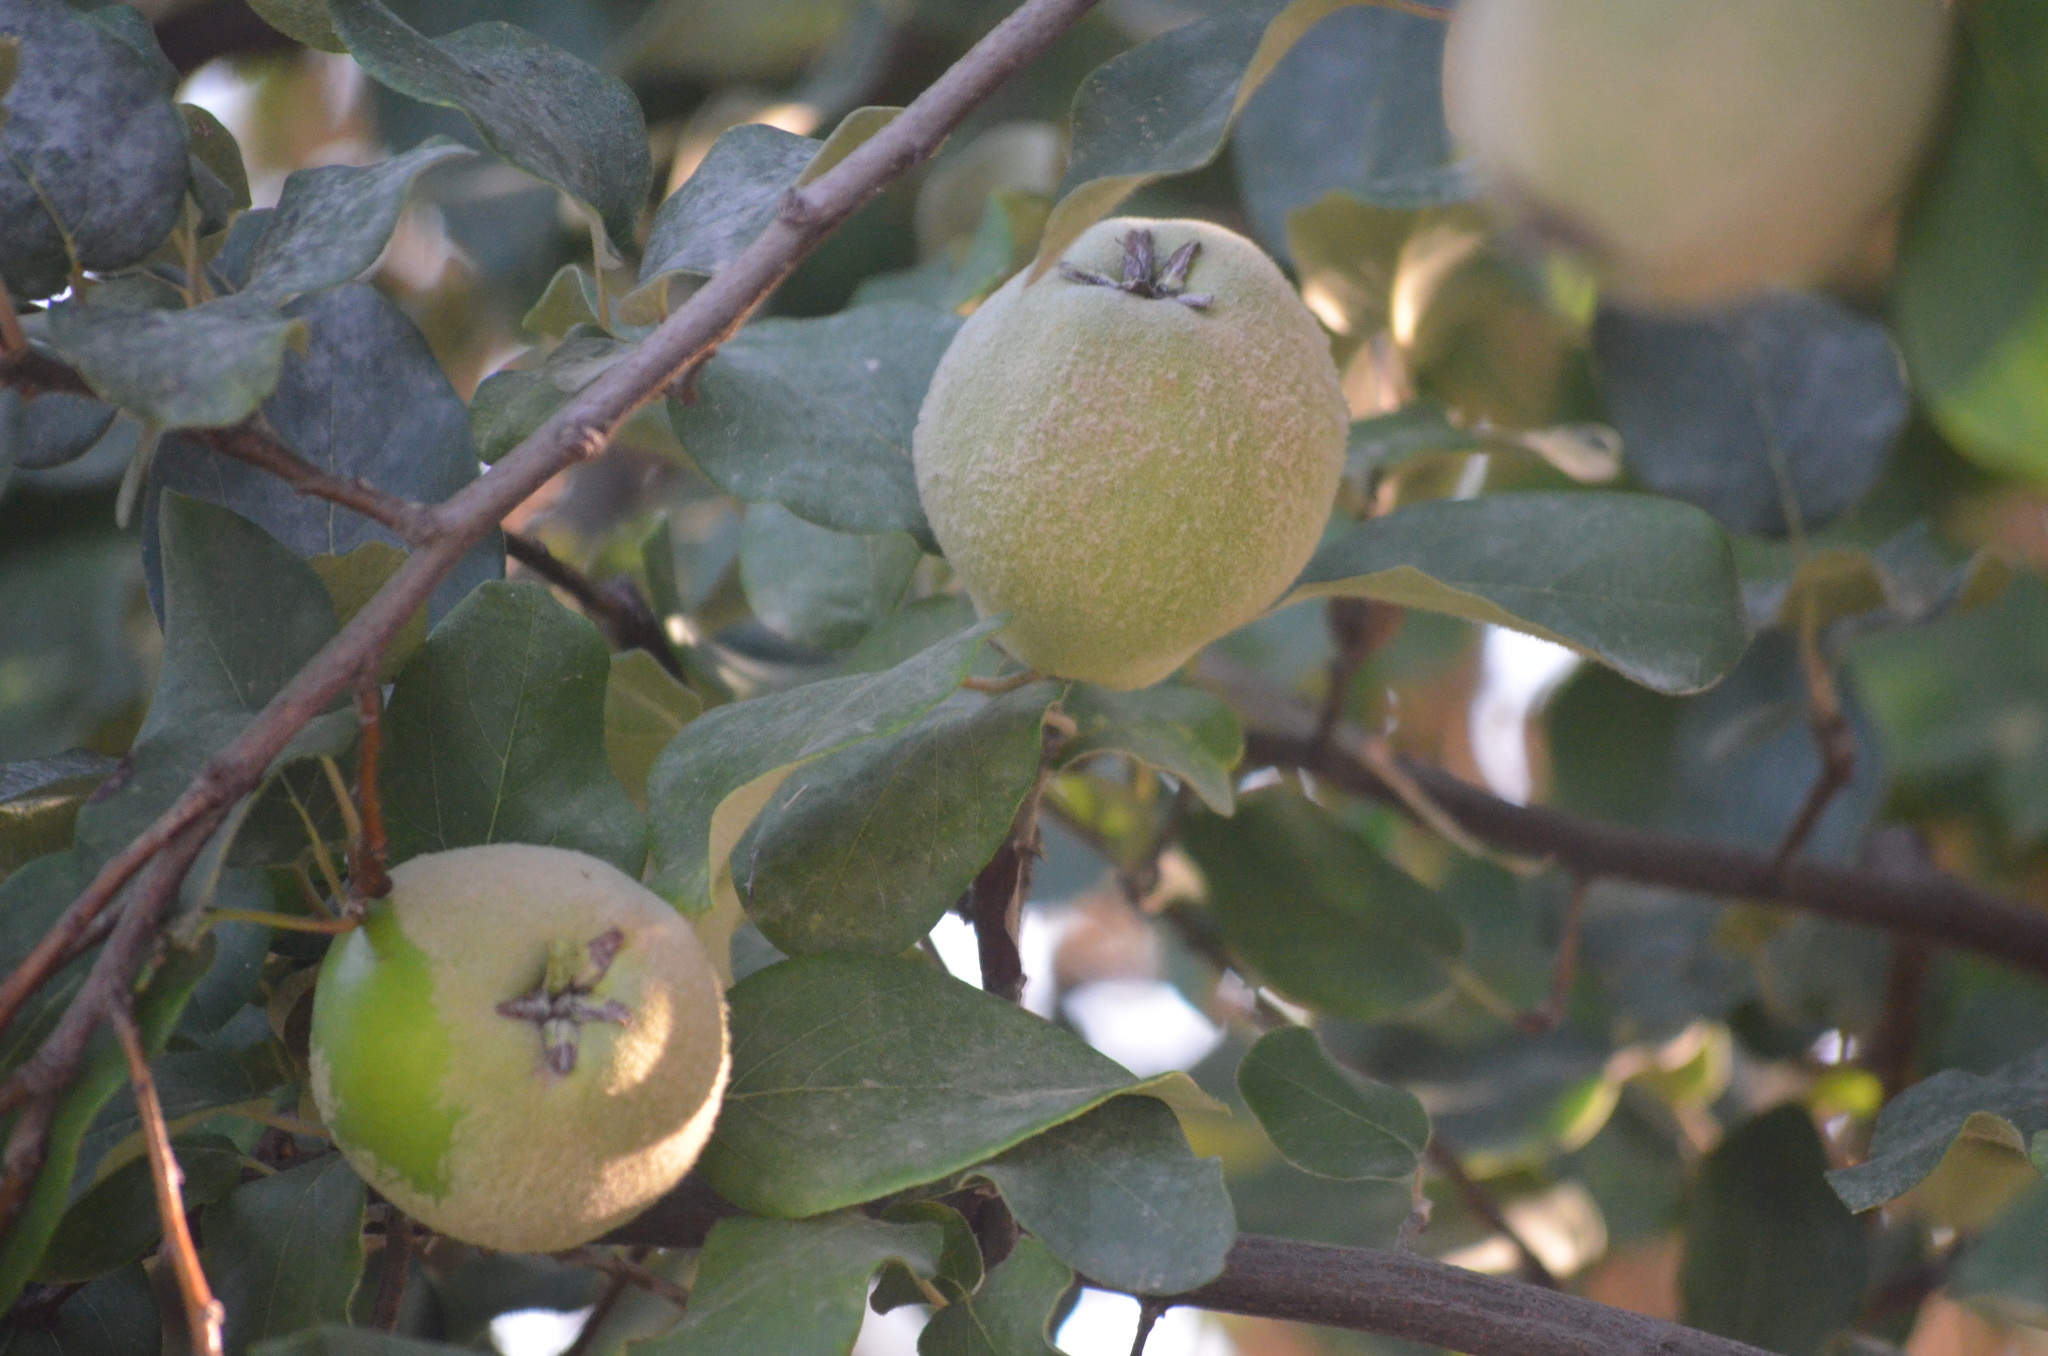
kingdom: Plantae
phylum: Tracheophyta
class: Magnoliopsida
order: Rosales
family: Rosaceae
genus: Cydonia
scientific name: Cydonia oblonga
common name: Quince
